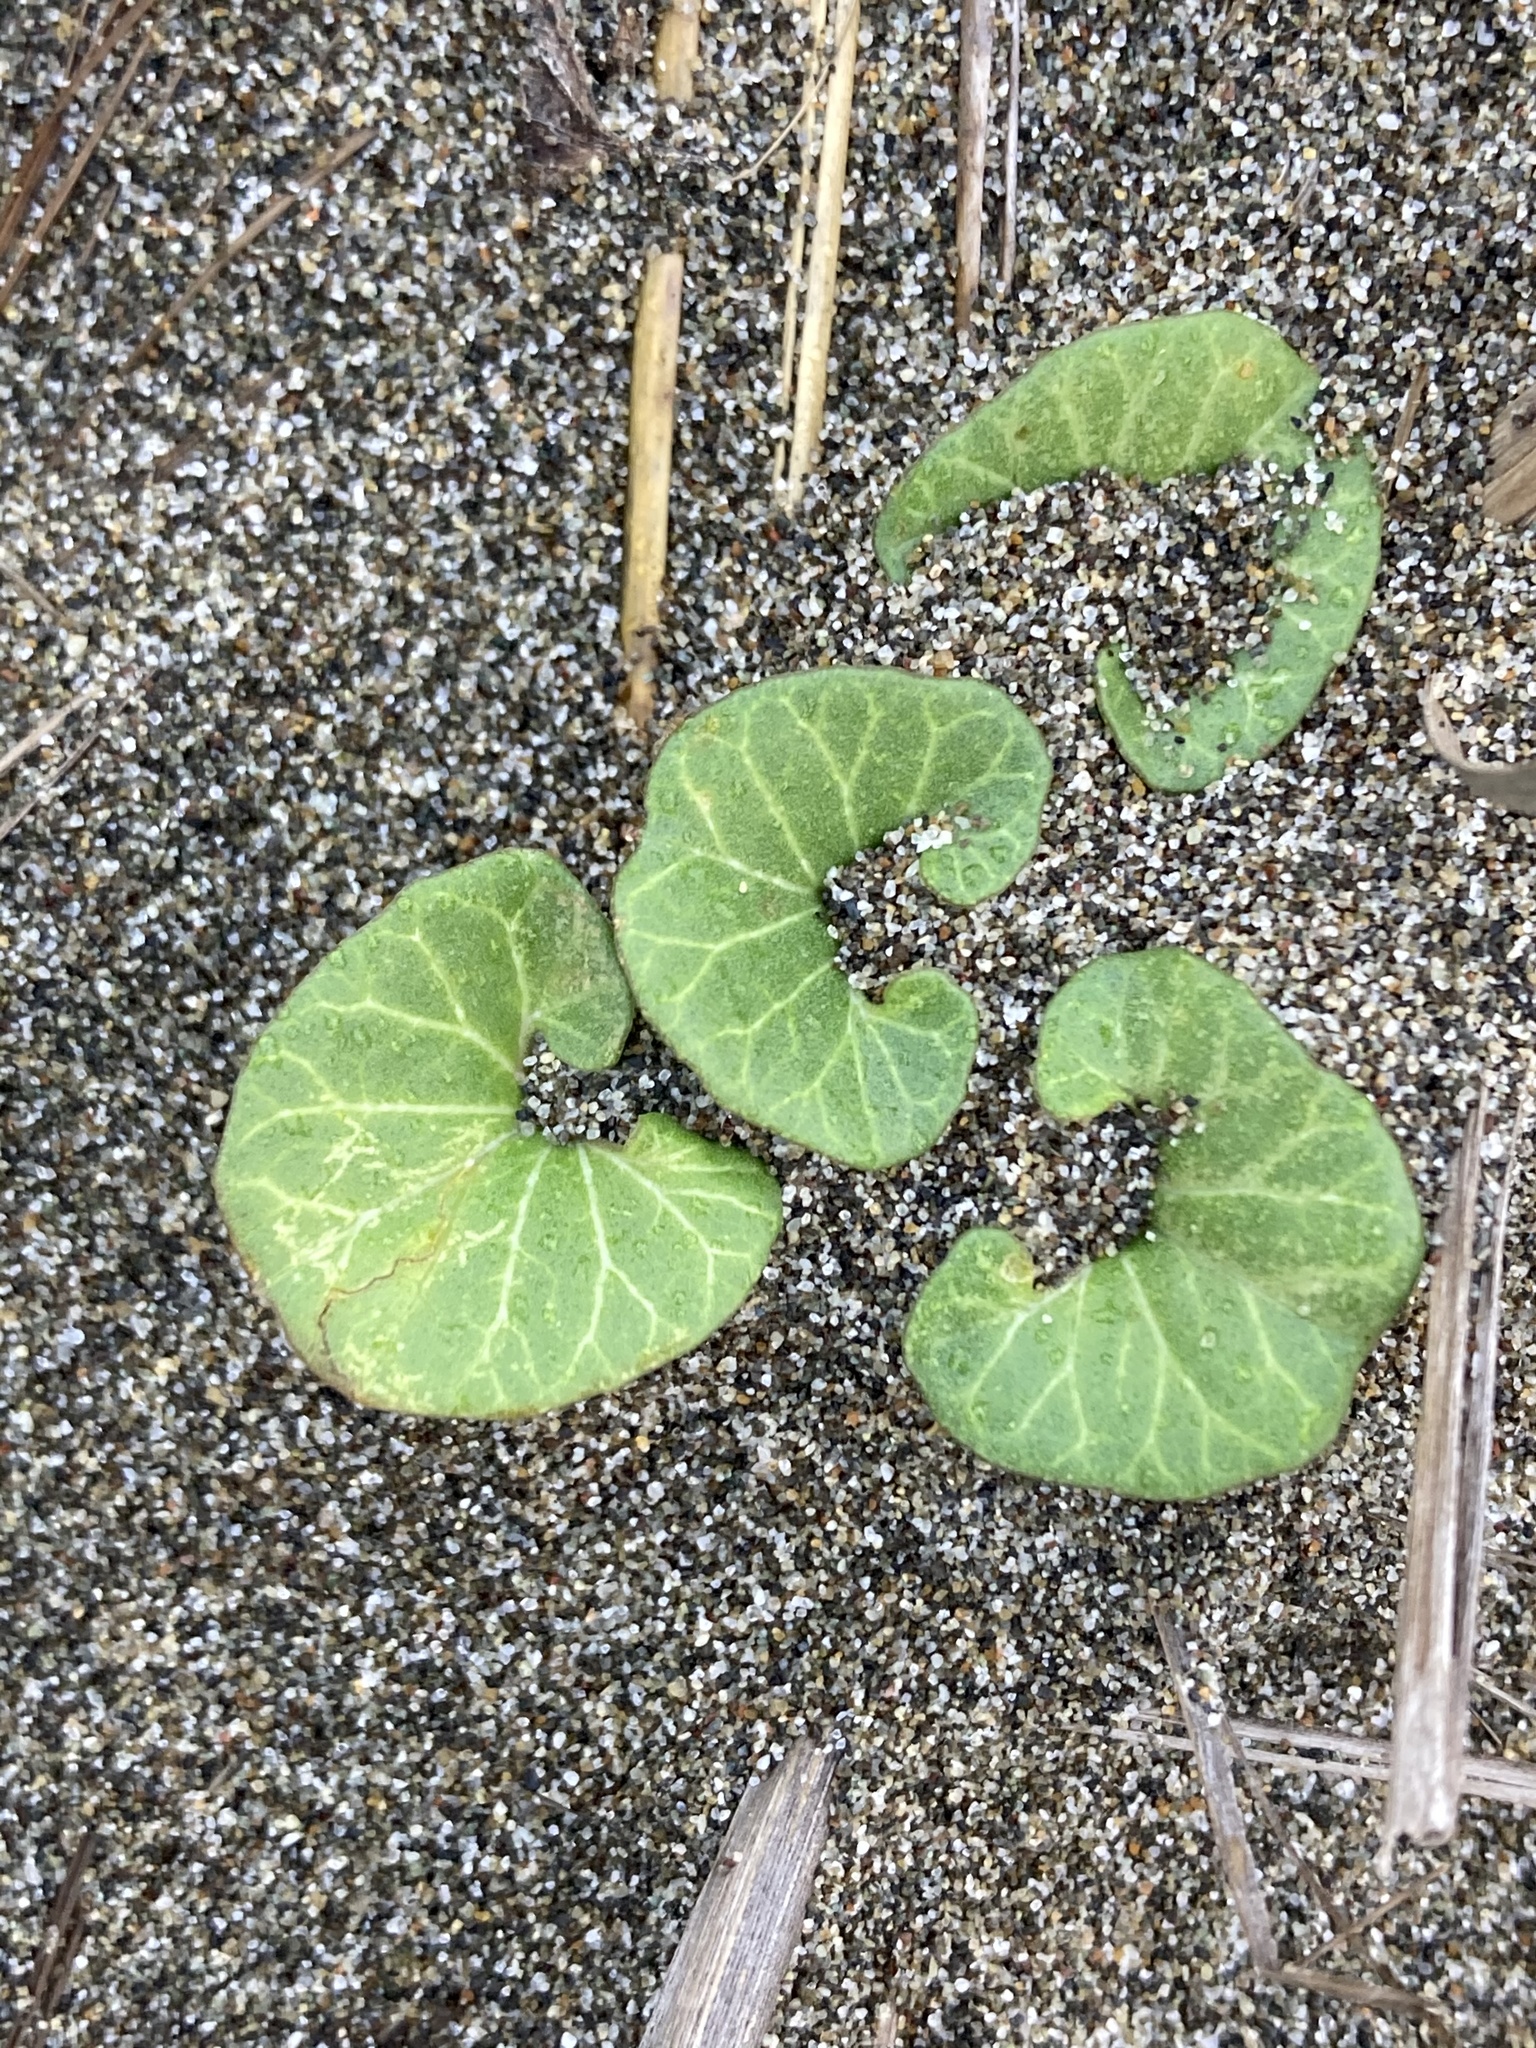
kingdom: Plantae
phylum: Tracheophyta
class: Magnoliopsida
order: Solanales
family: Convolvulaceae
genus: Calystegia
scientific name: Calystegia soldanella
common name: Sea bindweed
